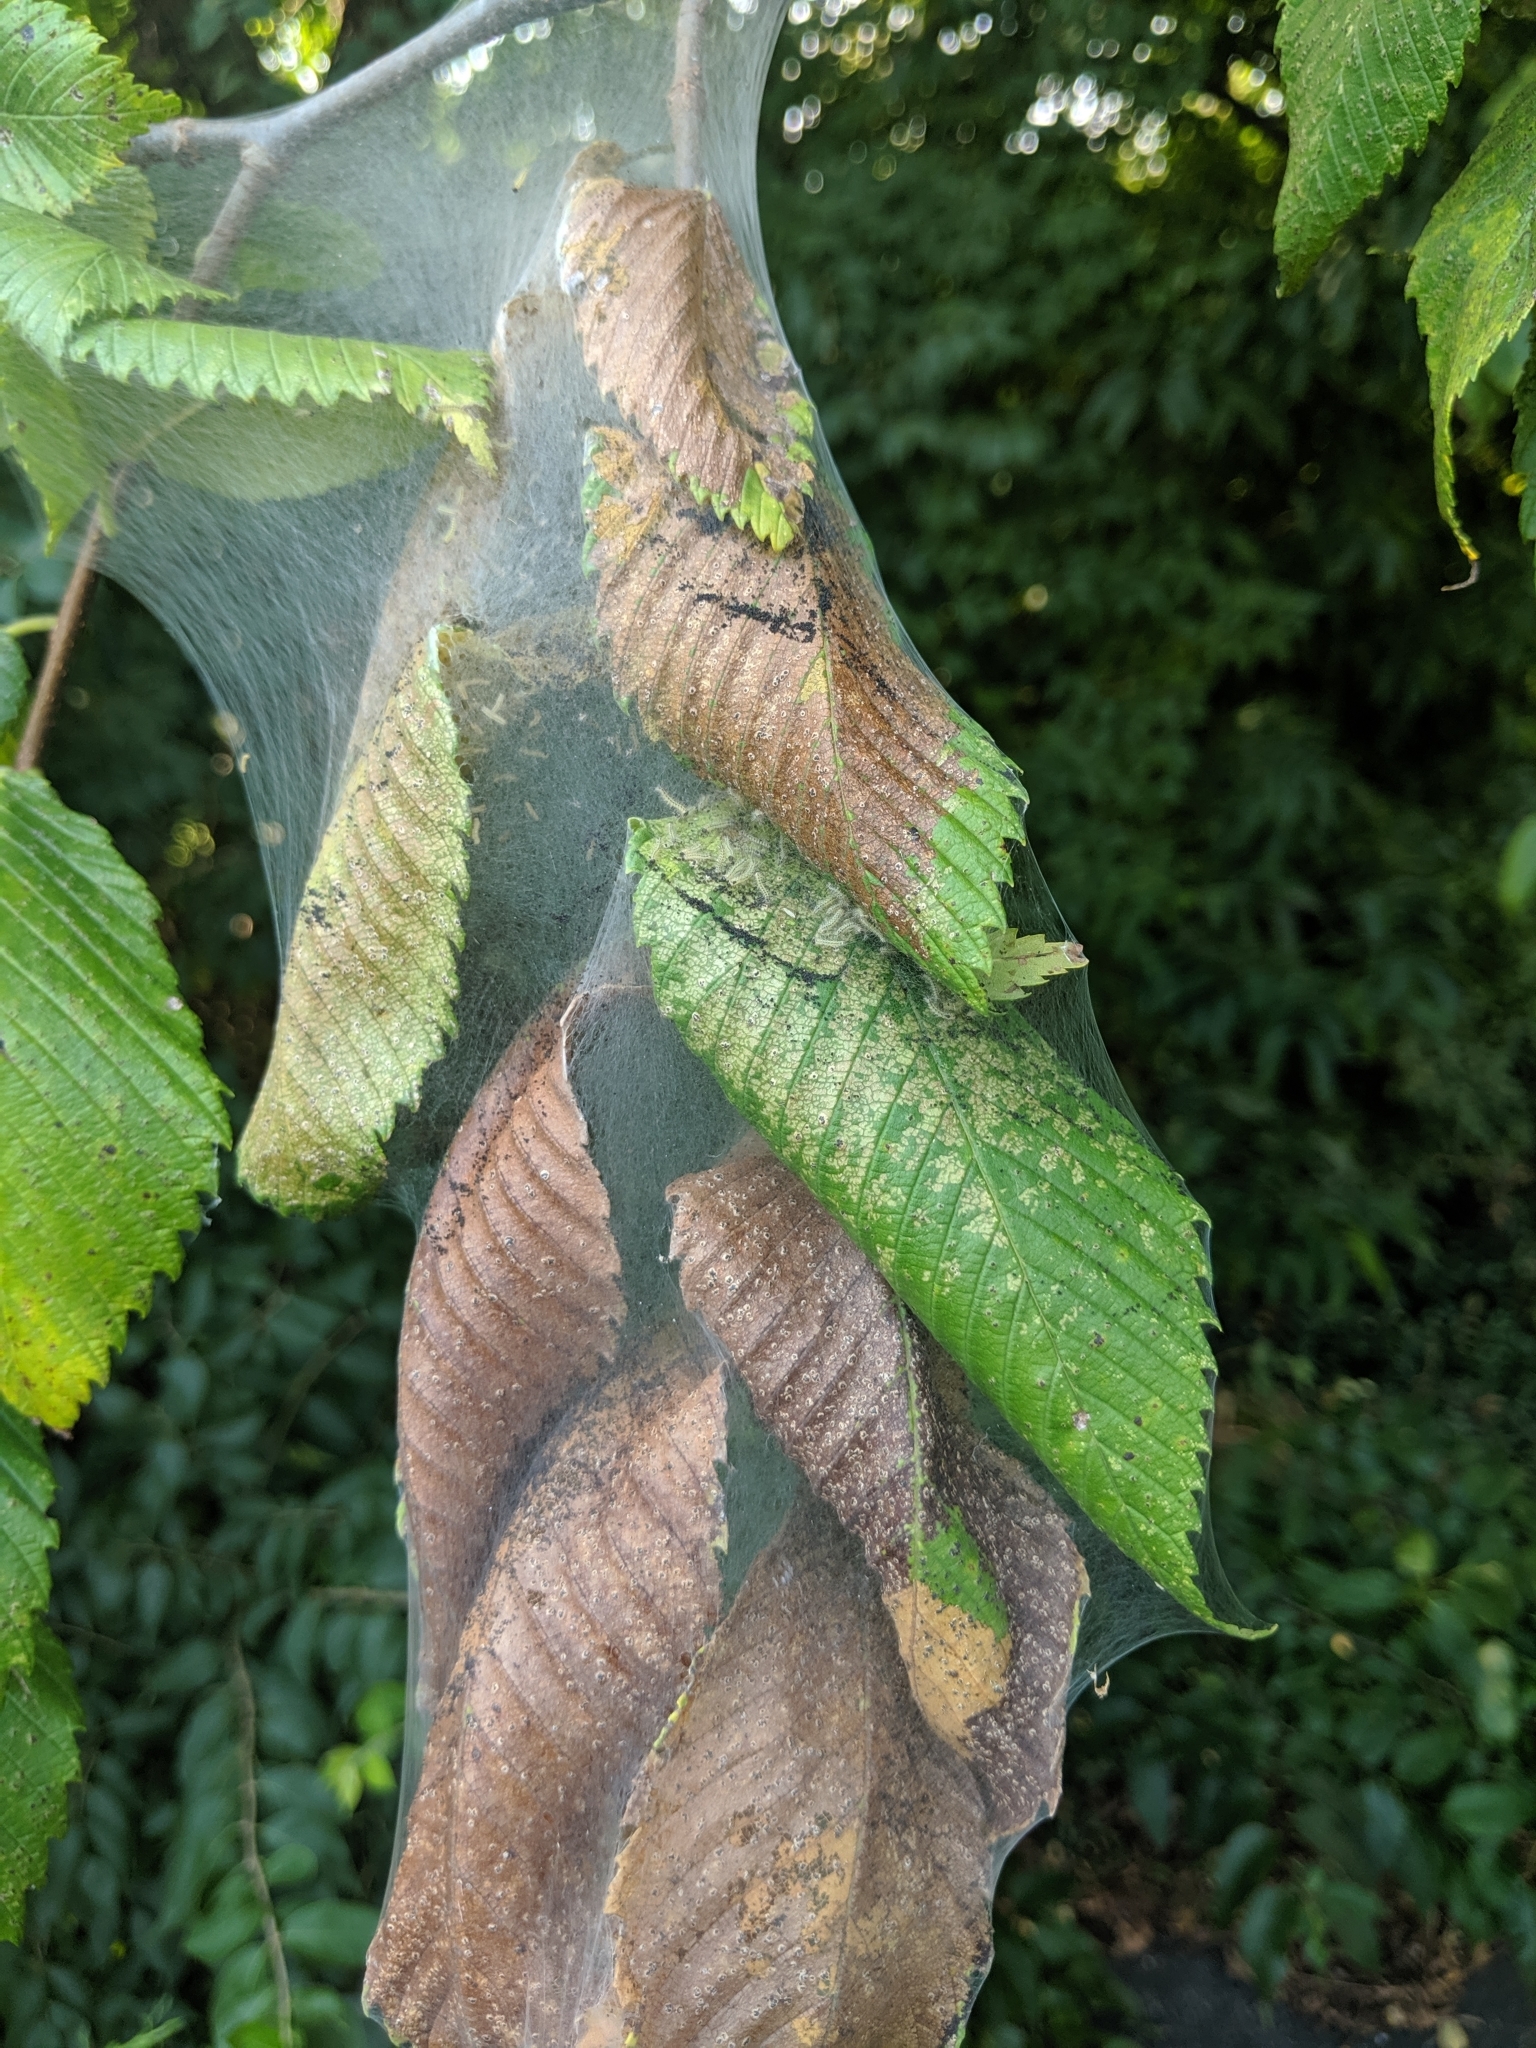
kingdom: Animalia
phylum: Arthropoda
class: Insecta
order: Lepidoptera
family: Erebidae
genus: Hyphantria
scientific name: Hyphantria cunea
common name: American white moth
